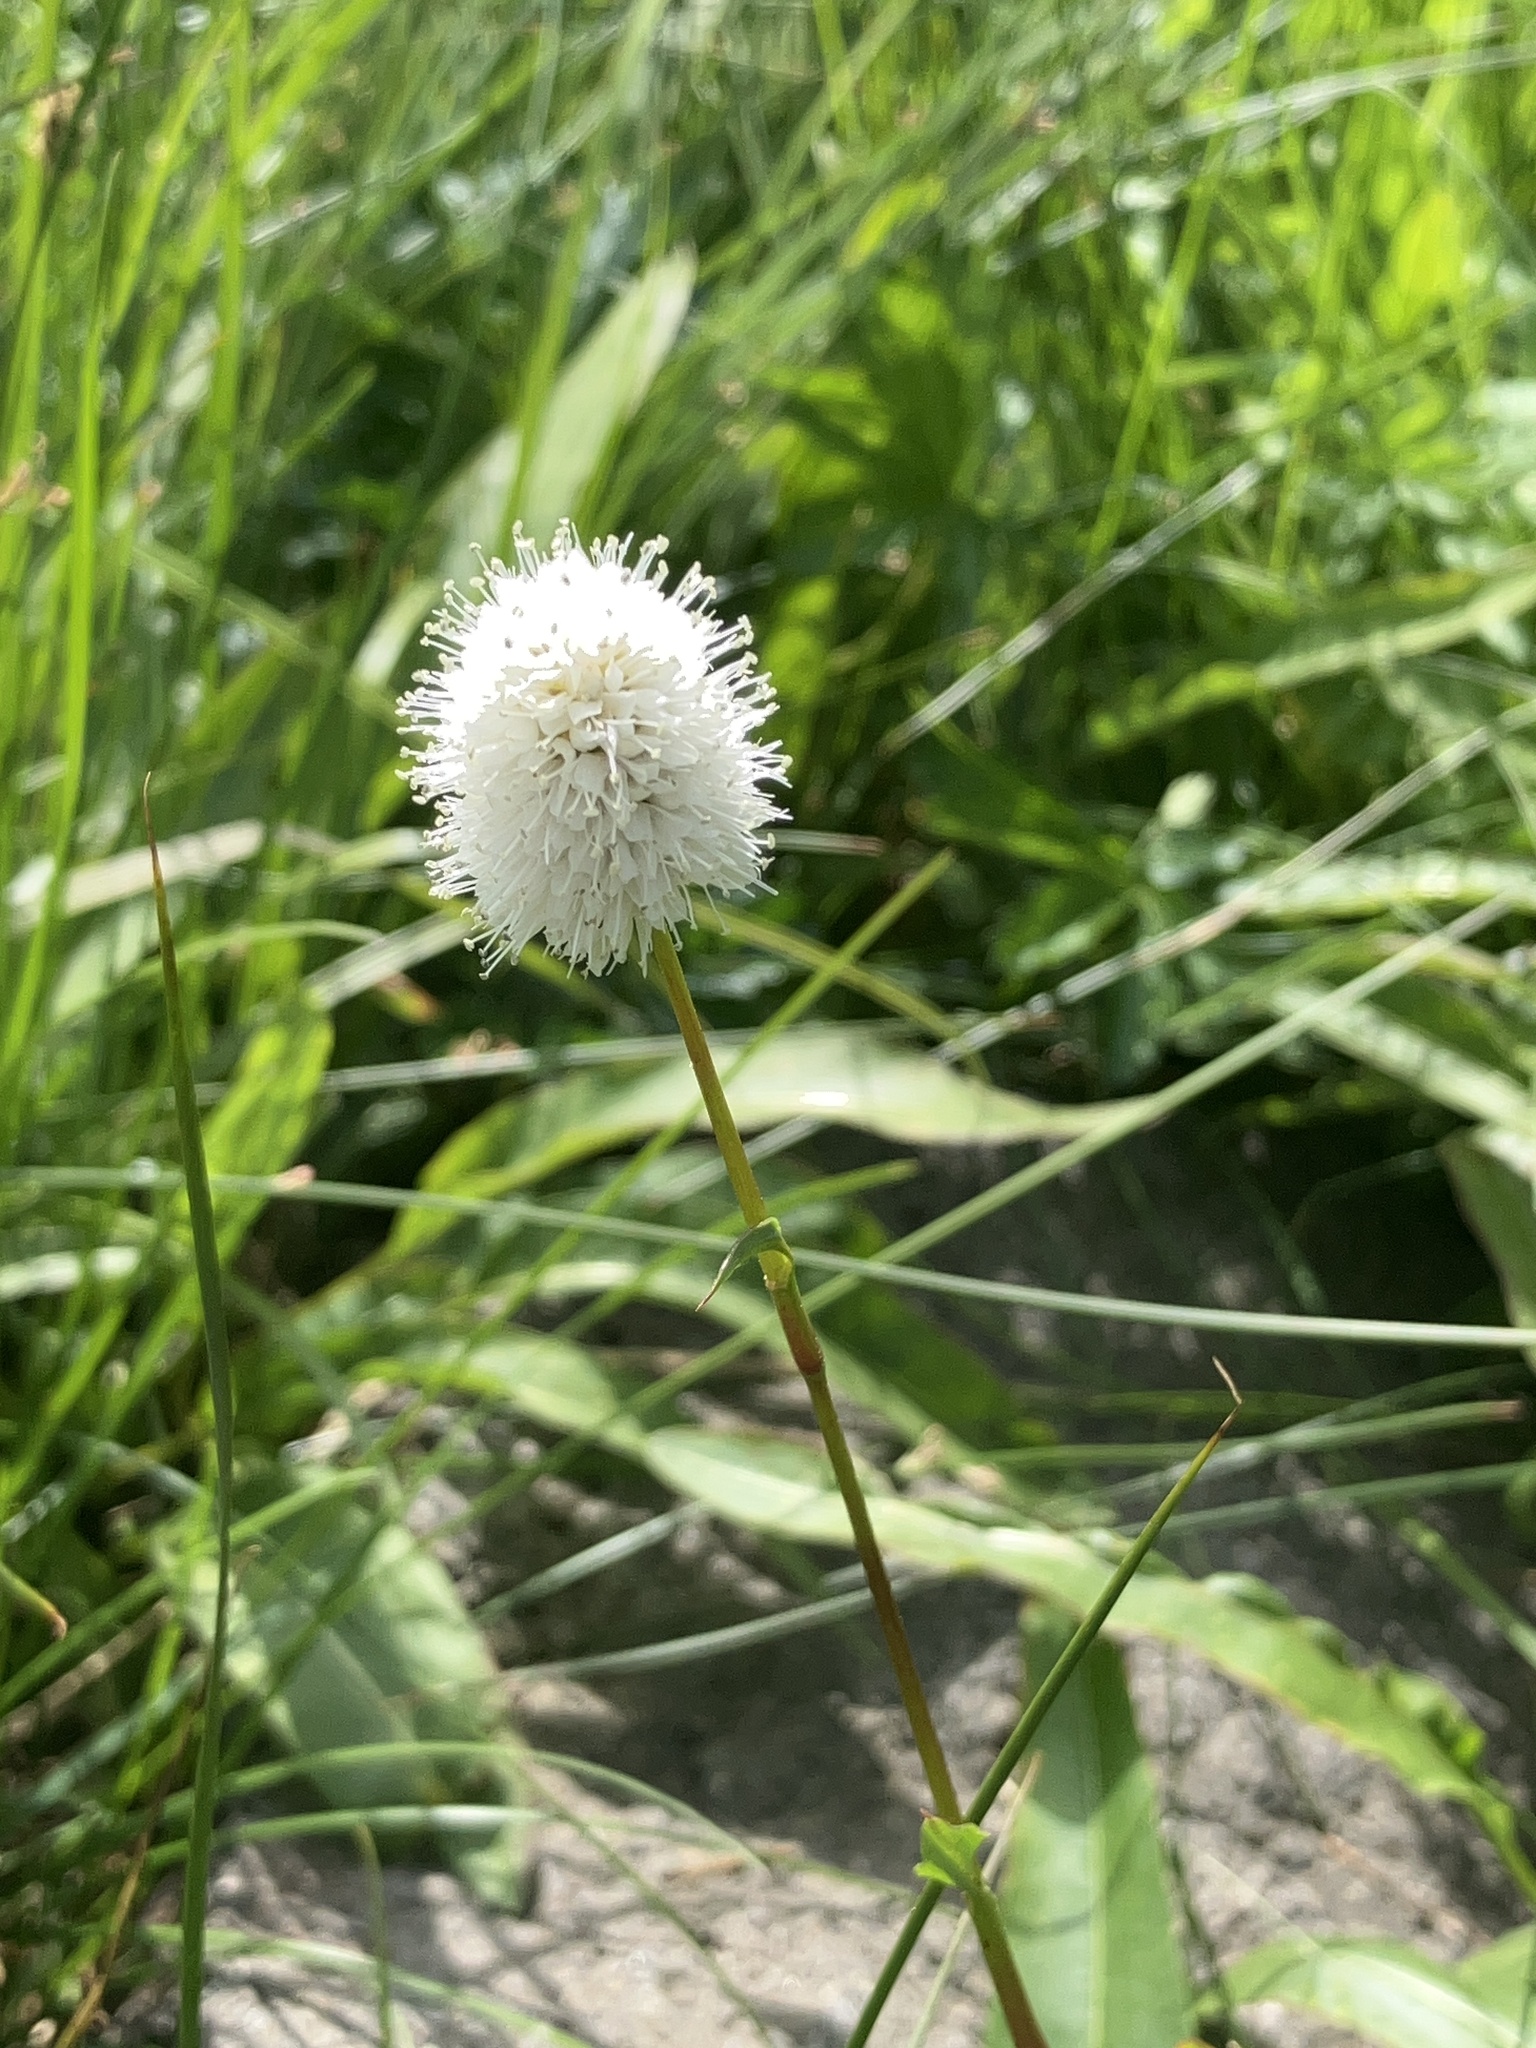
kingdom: Plantae
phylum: Tracheophyta
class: Magnoliopsida
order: Caryophyllales
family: Polygonaceae
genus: Bistorta
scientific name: Bistorta bistortoides
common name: American bistort
